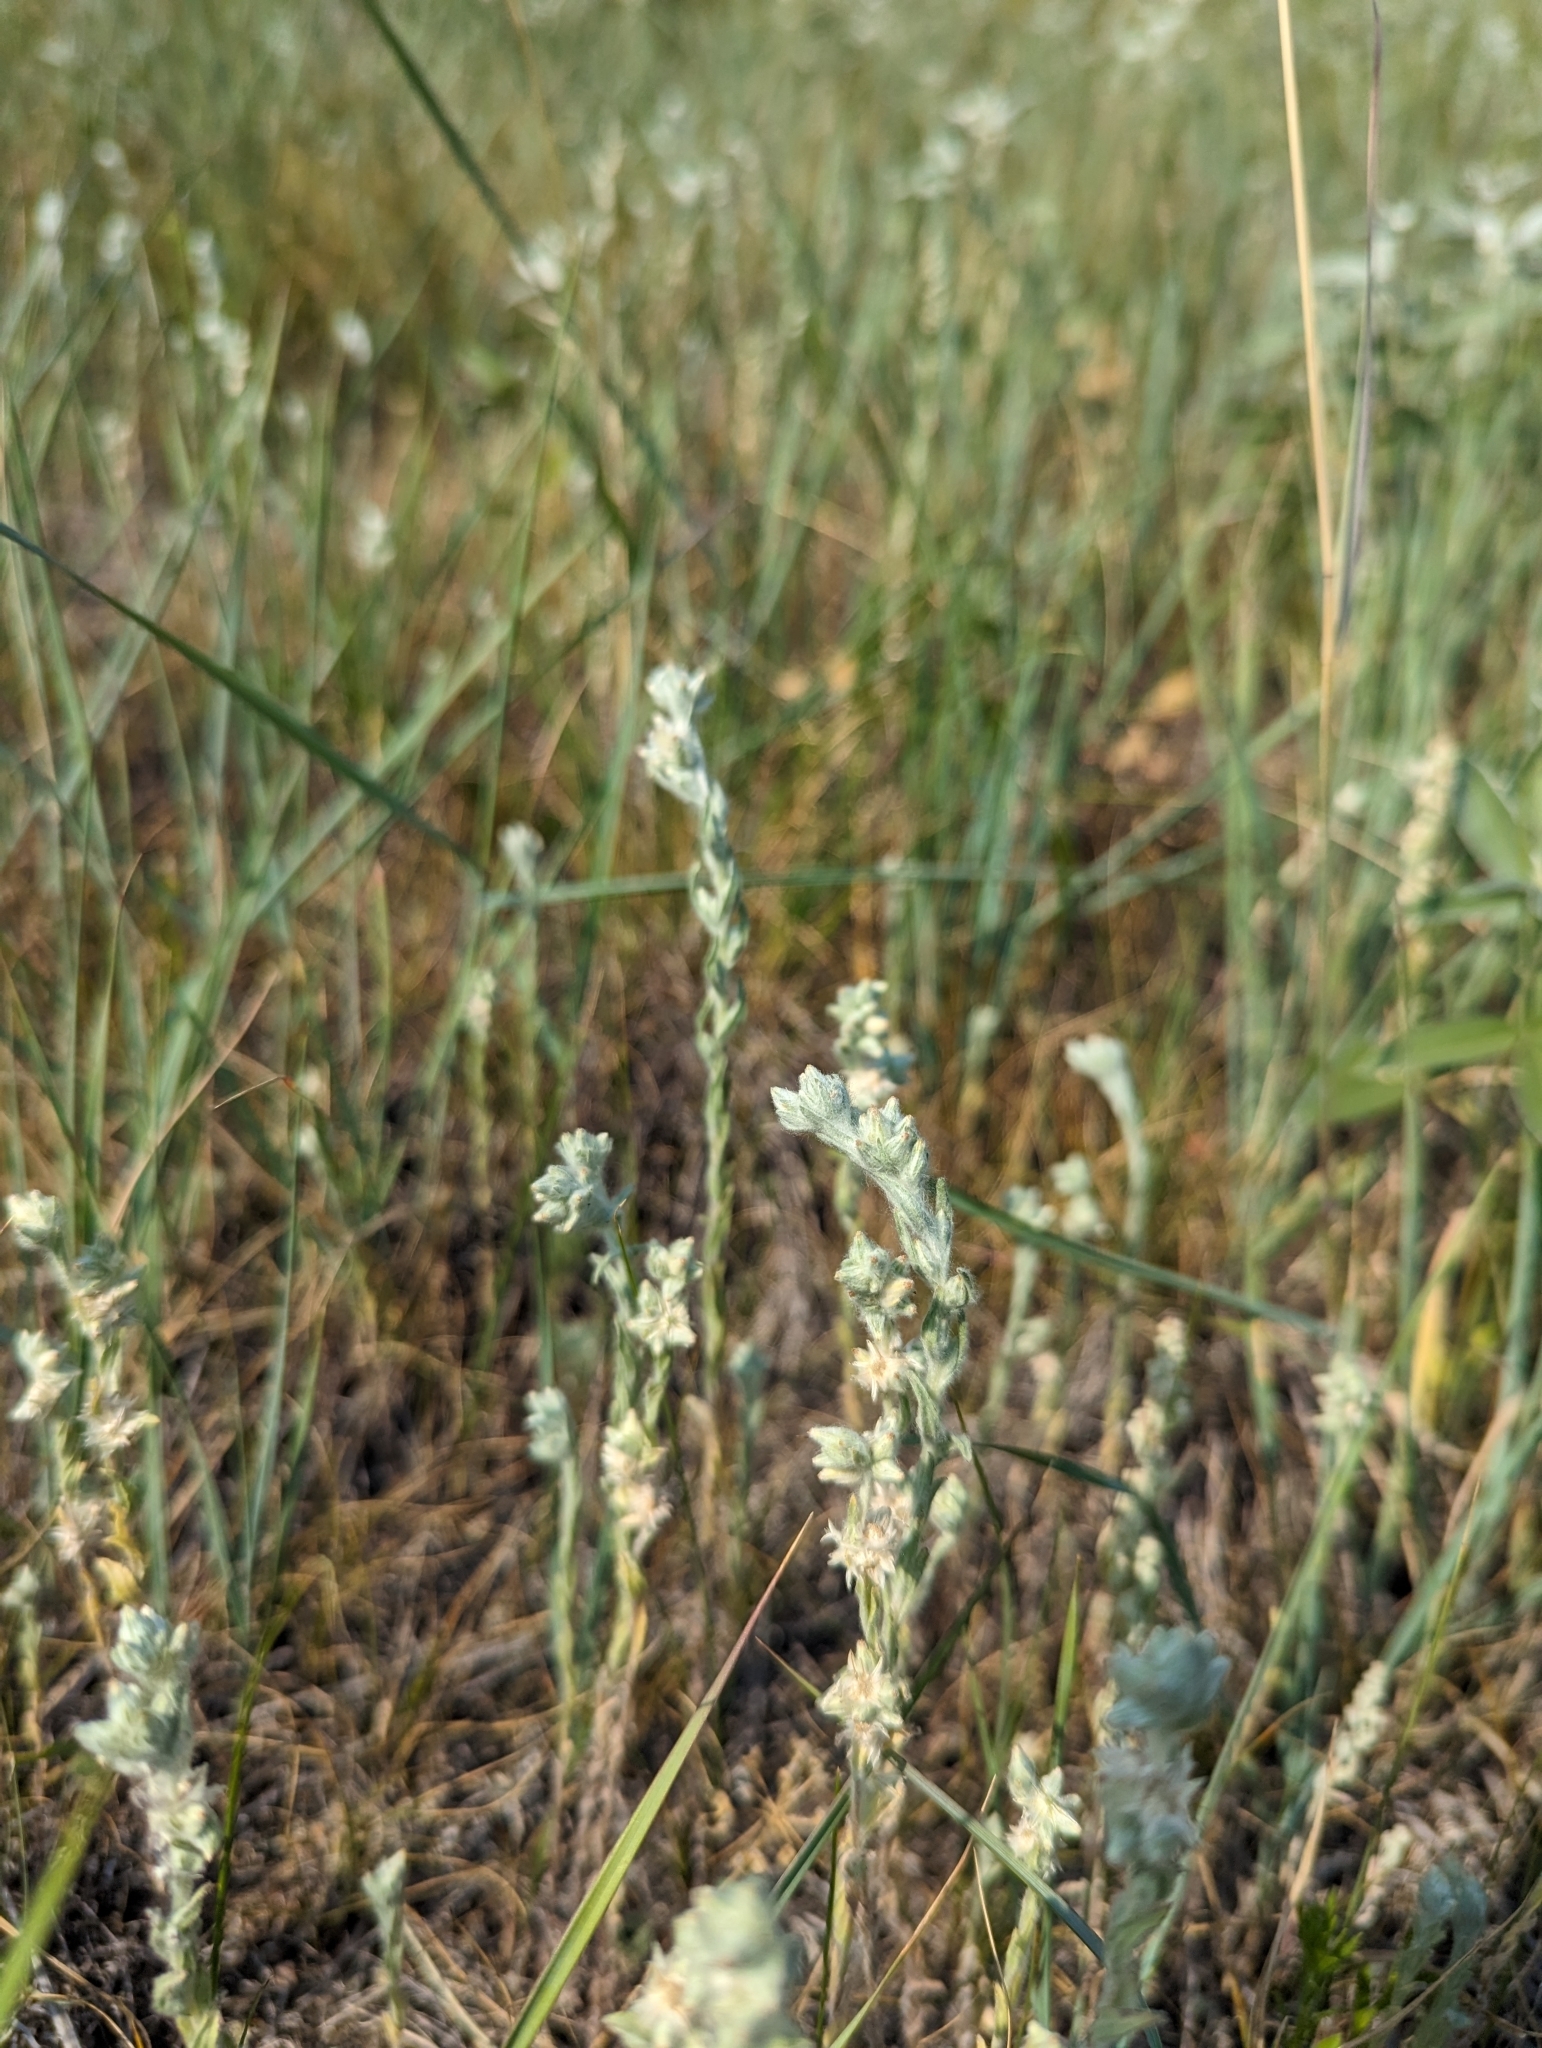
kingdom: Plantae
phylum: Tracheophyta
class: Magnoliopsida
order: Asterales
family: Asteraceae
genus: Filago
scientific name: Filago arvensis
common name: Field cudweed
